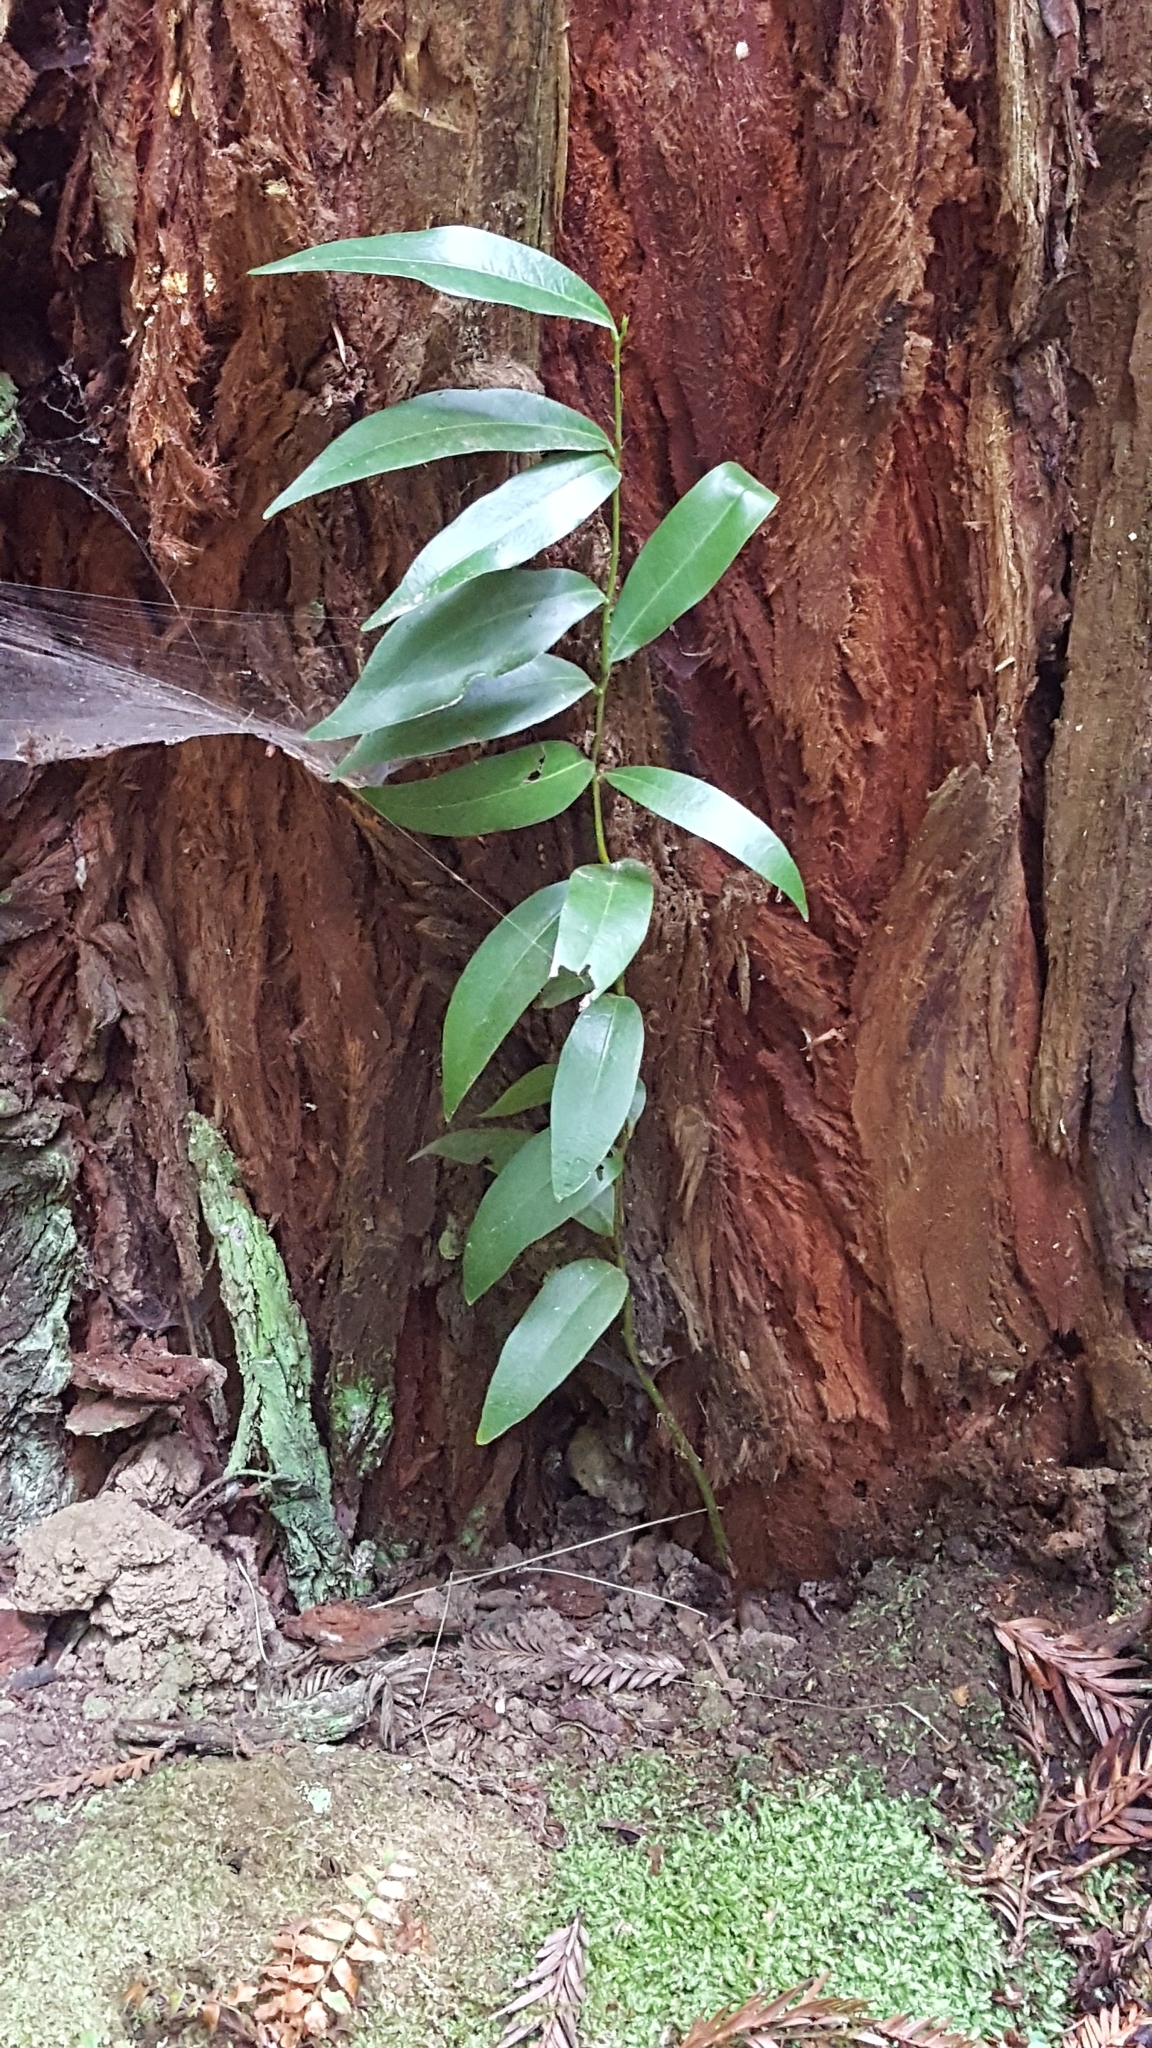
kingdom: Plantae
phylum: Tracheophyta
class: Magnoliopsida
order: Laurales
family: Lauraceae
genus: Umbellularia
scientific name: Umbellularia californica
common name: California bay
